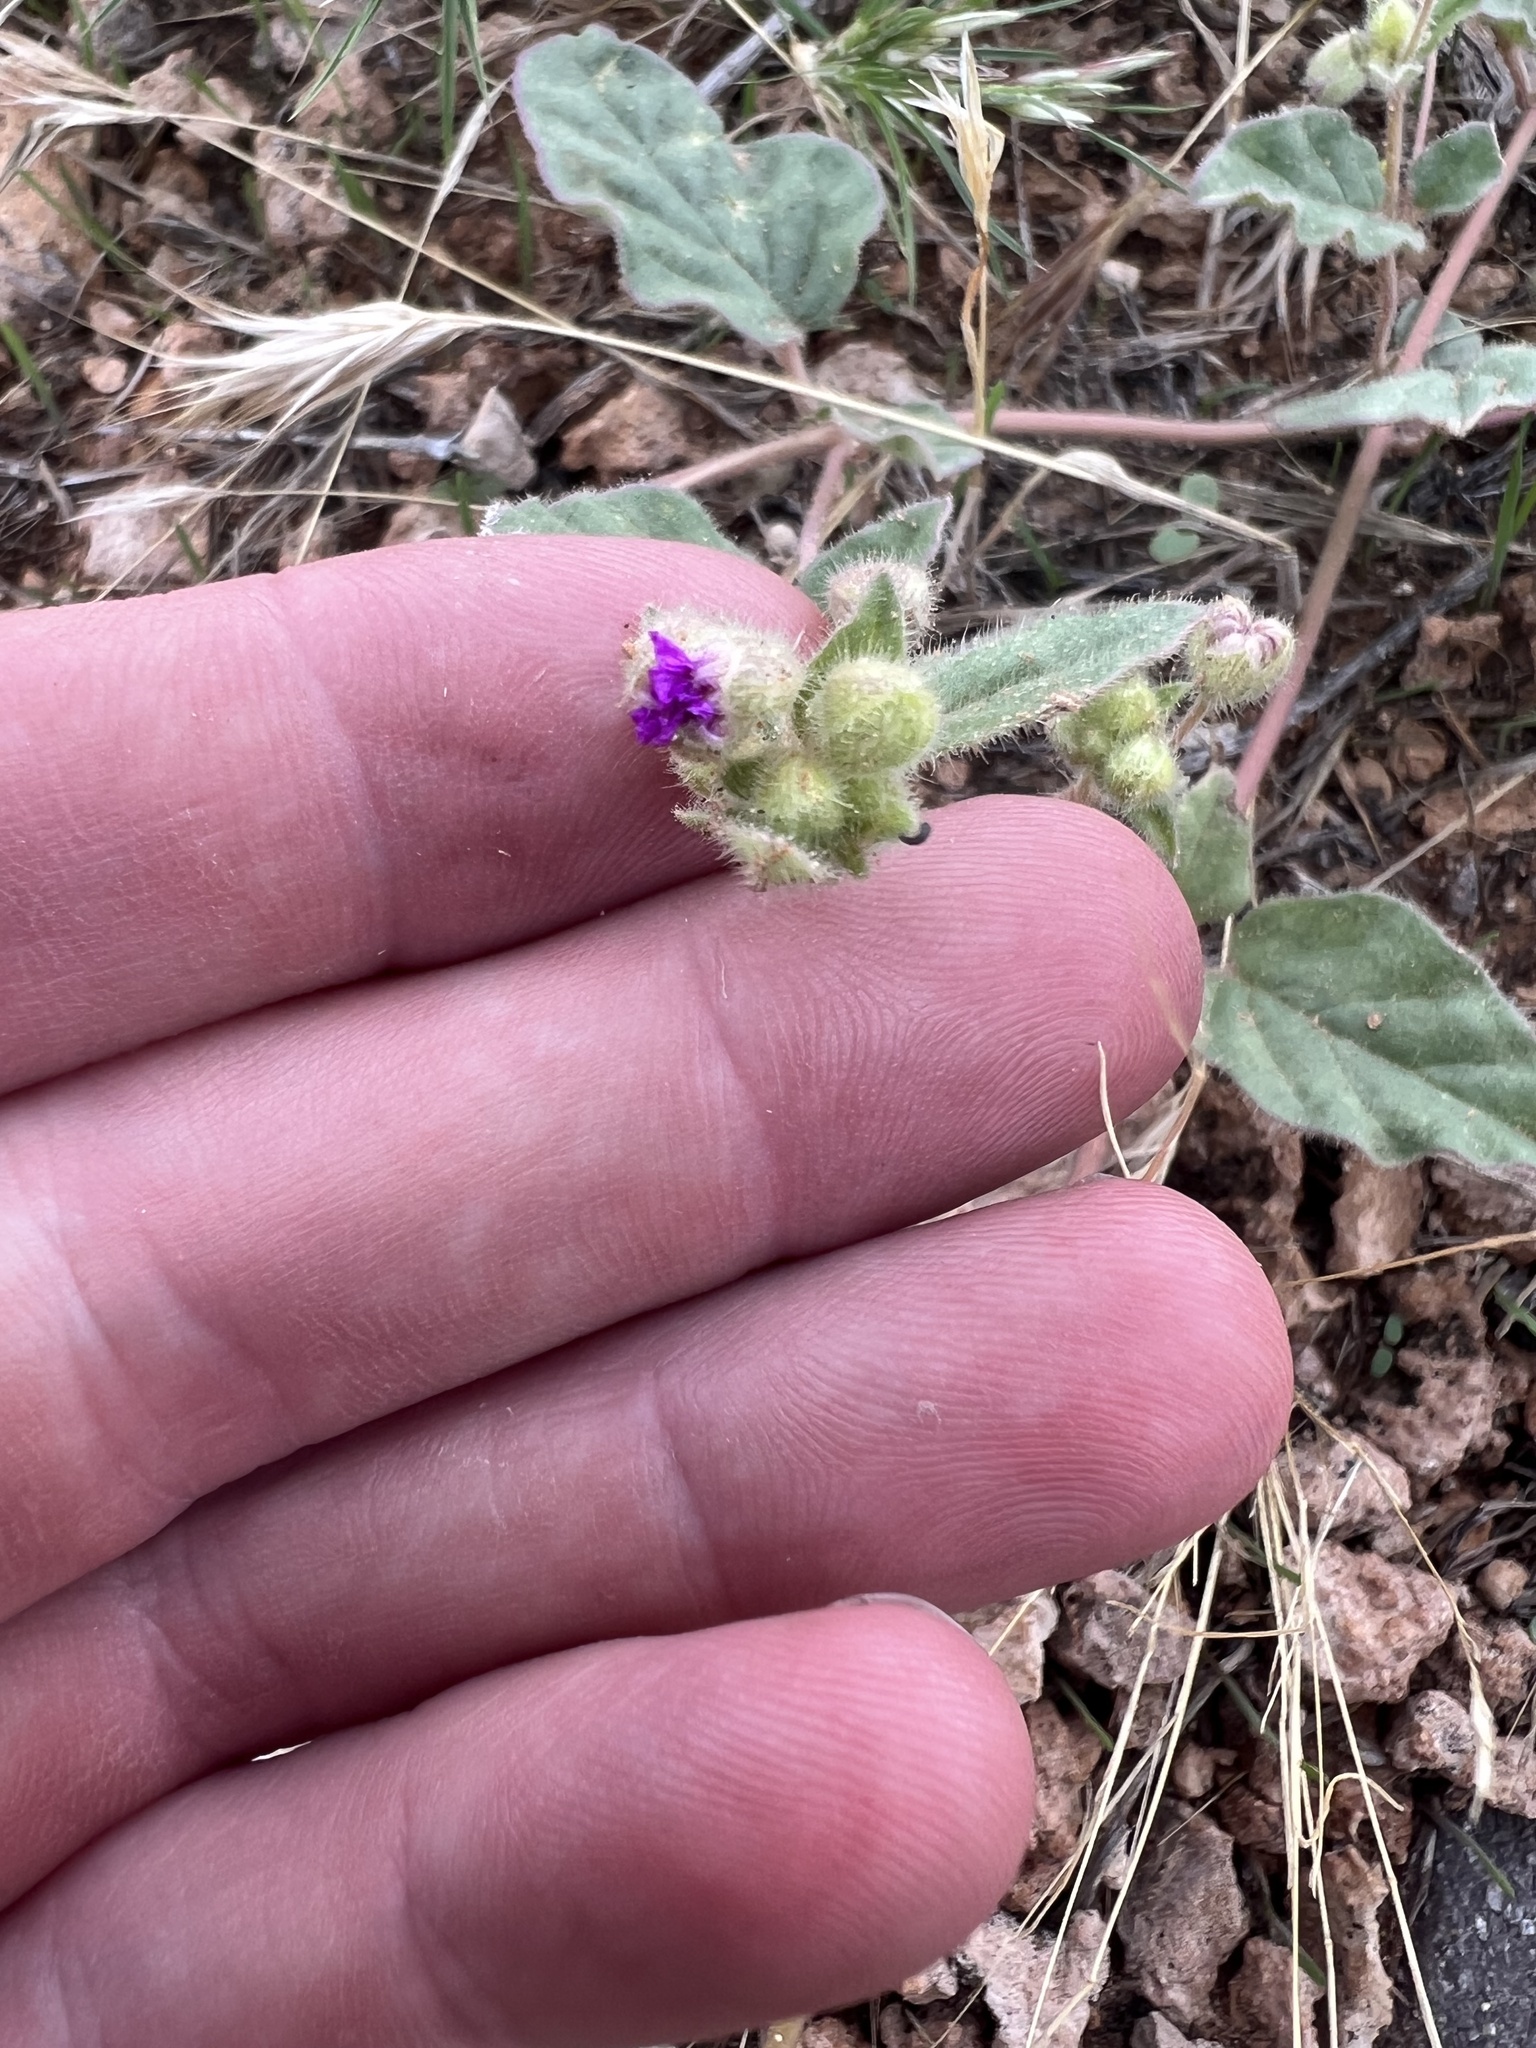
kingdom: Plantae
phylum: Tracheophyta
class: Magnoliopsida
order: Caryophyllales
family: Nyctaginaceae
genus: Allionia
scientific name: Allionia incarnata
